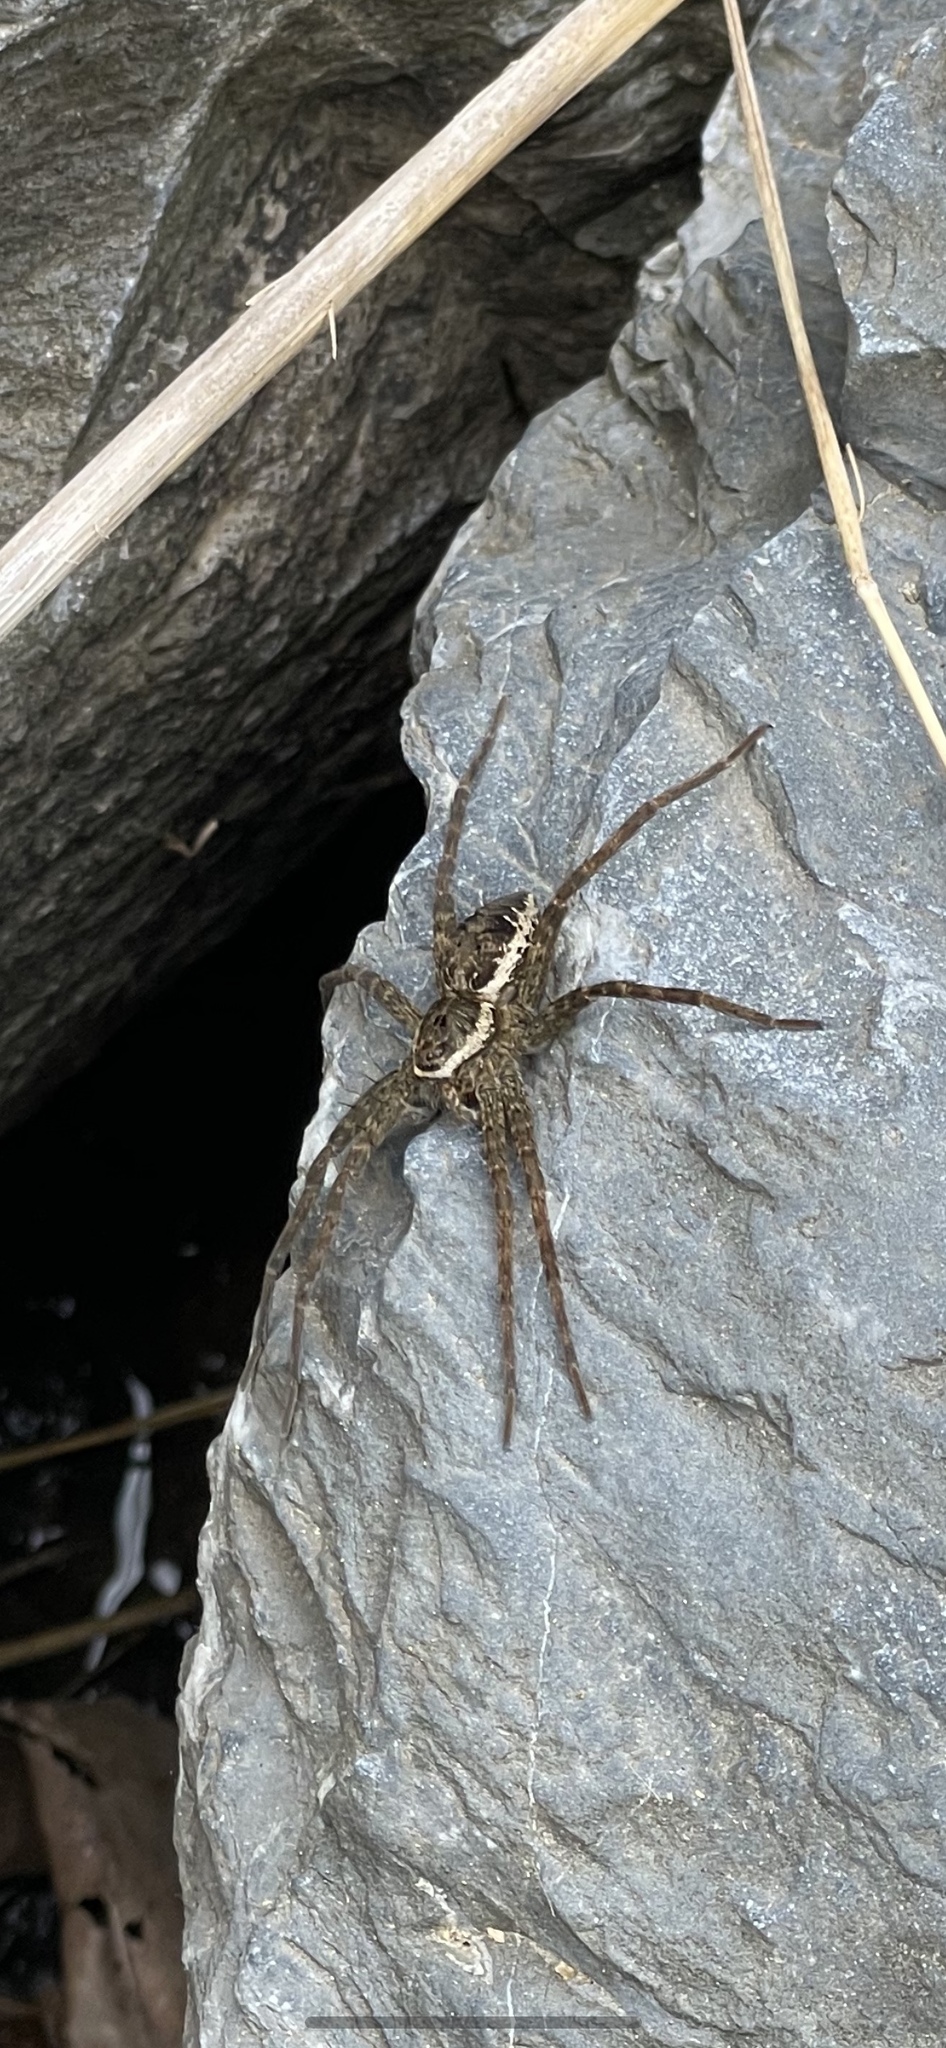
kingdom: Animalia
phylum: Arthropoda
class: Arachnida
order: Araneae
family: Pisauridae
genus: Dolomedes
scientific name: Dolomedes vittatus
